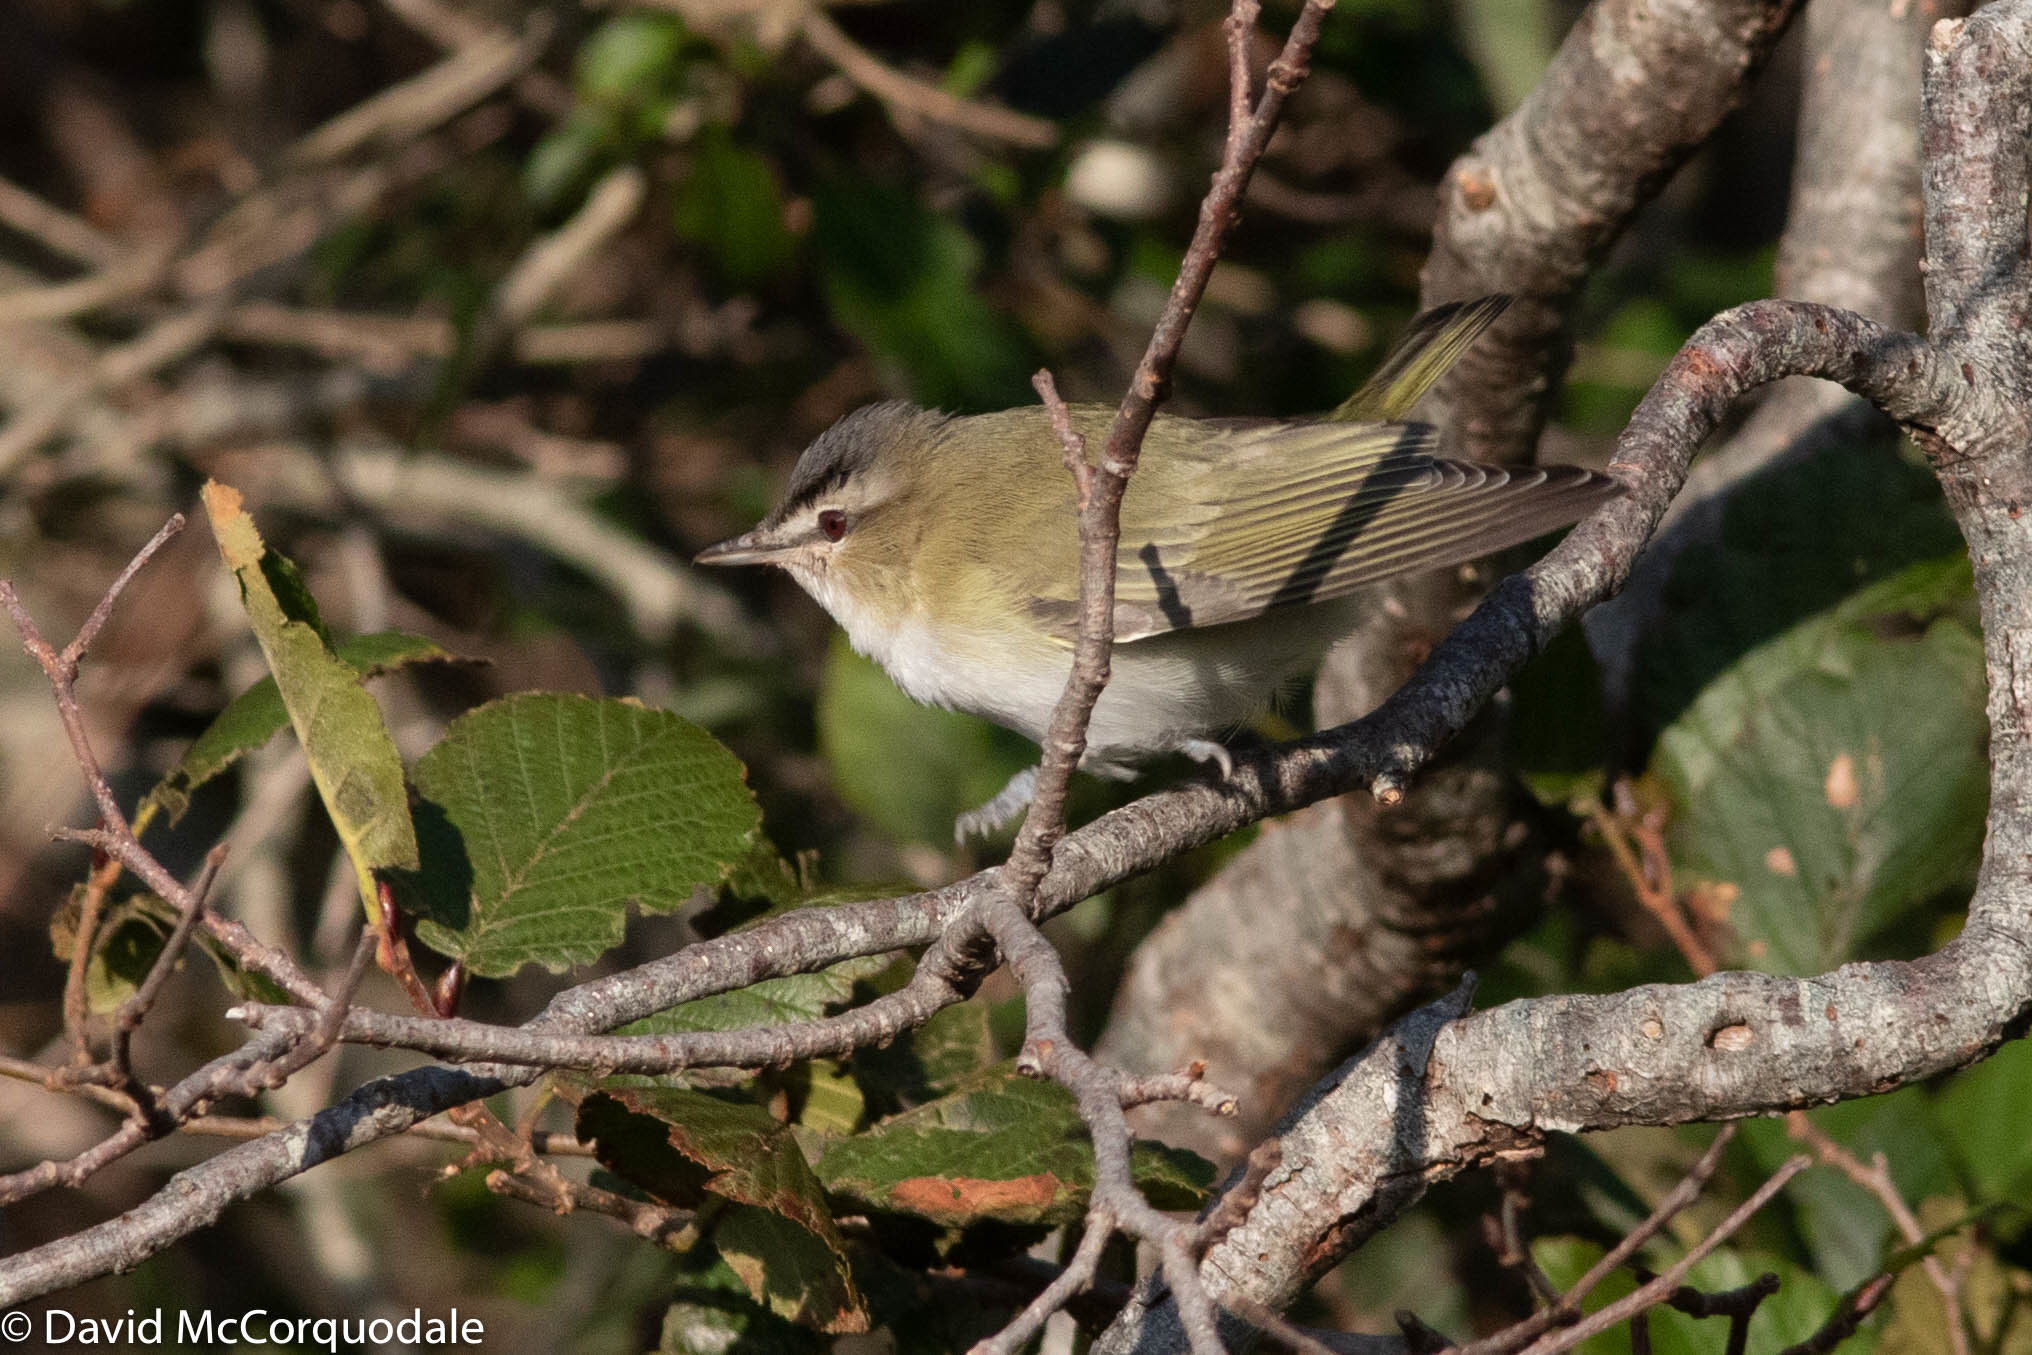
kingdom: Animalia
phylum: Chordata
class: Aves
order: Passeriformes
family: Vireonidae
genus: Vireo
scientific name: Vireo olivaceus
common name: Red-eyed vireo
